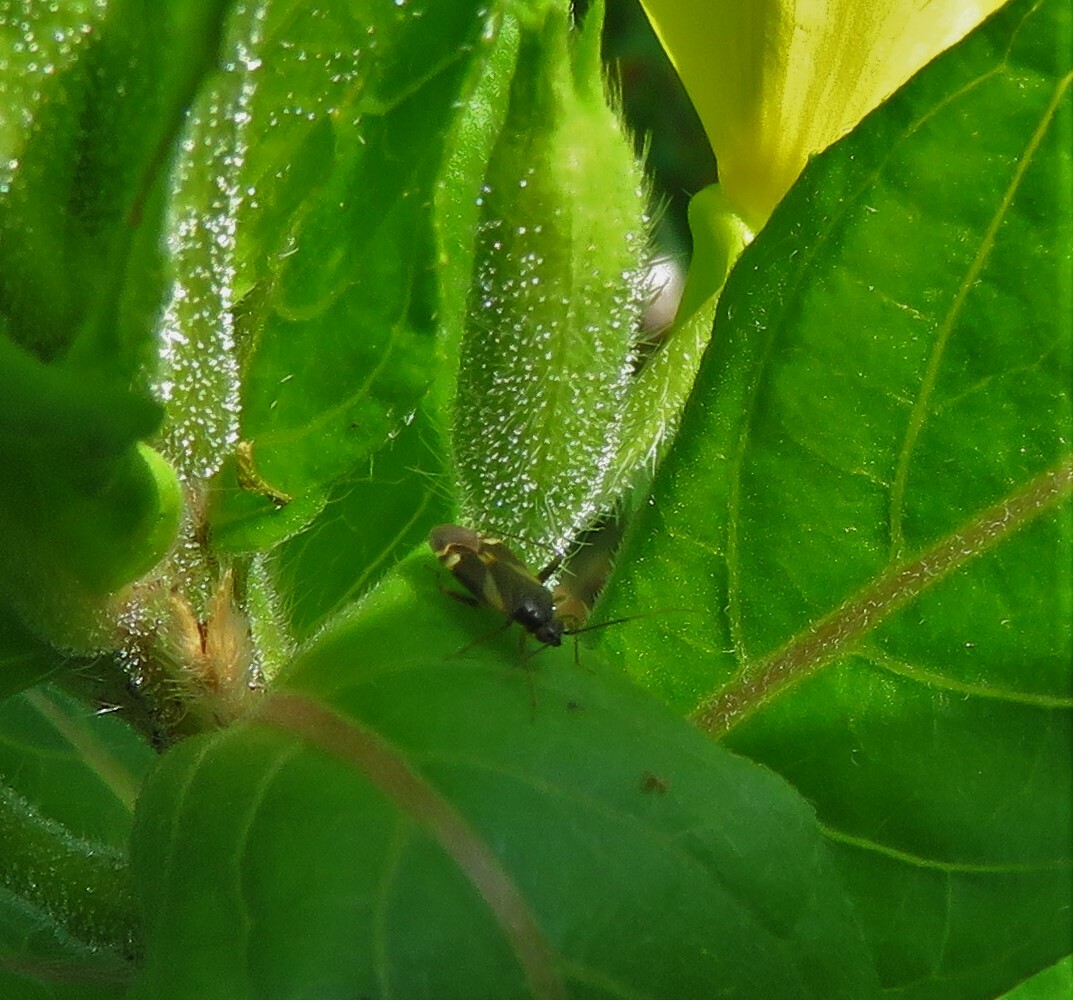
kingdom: Animalia
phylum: Arthropoda
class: Insecta
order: Hemiptera
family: Miridae
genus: Plagiognathus
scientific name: Plagiognathus obscurus
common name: Obscure plant bug
